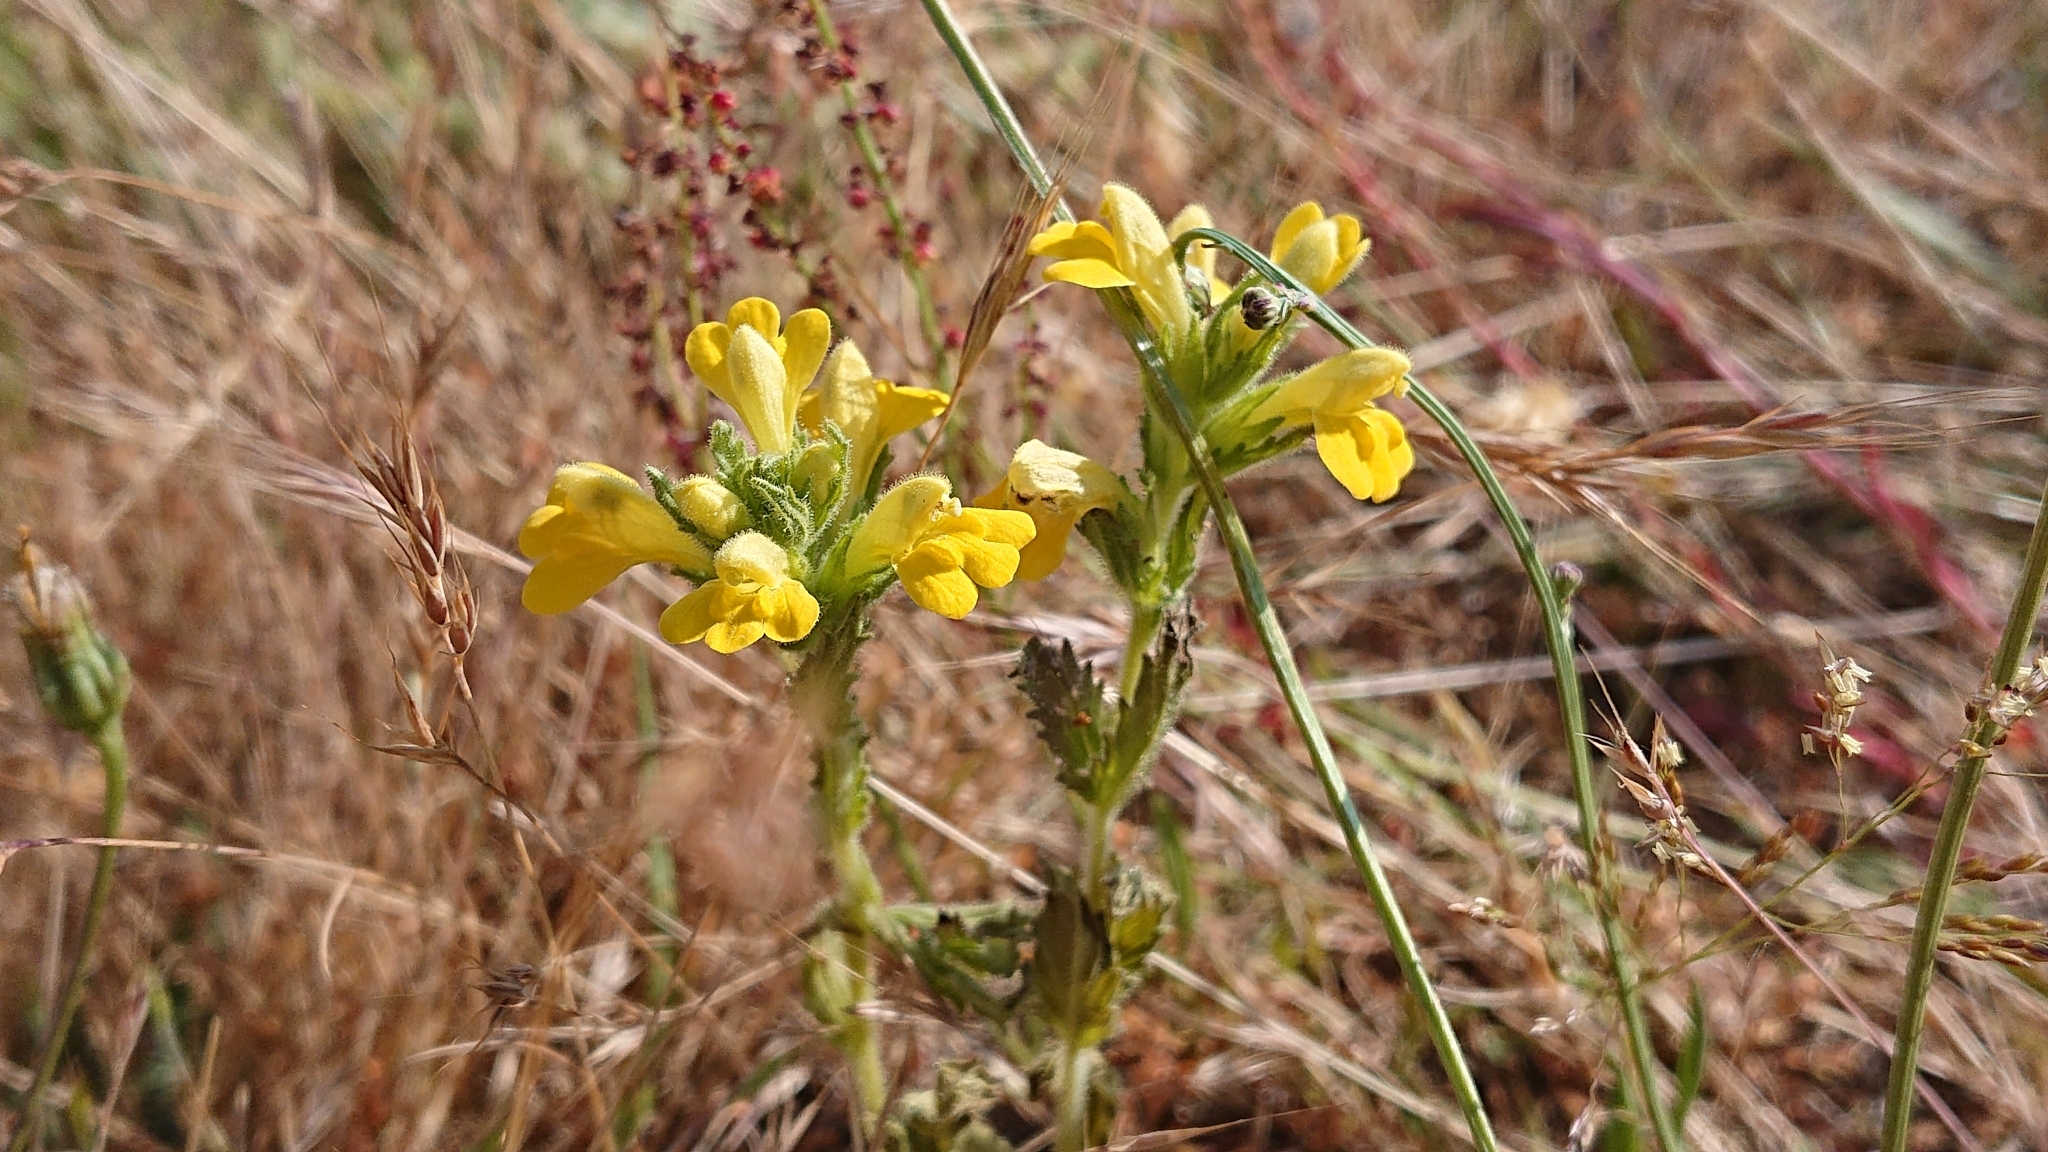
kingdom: Plantae
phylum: Tracheophyta
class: Magnoliopsida
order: Lamiales
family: Orobanchaceae
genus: Bellardia
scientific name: Bellardia viscosa
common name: Sticky parentucellia
